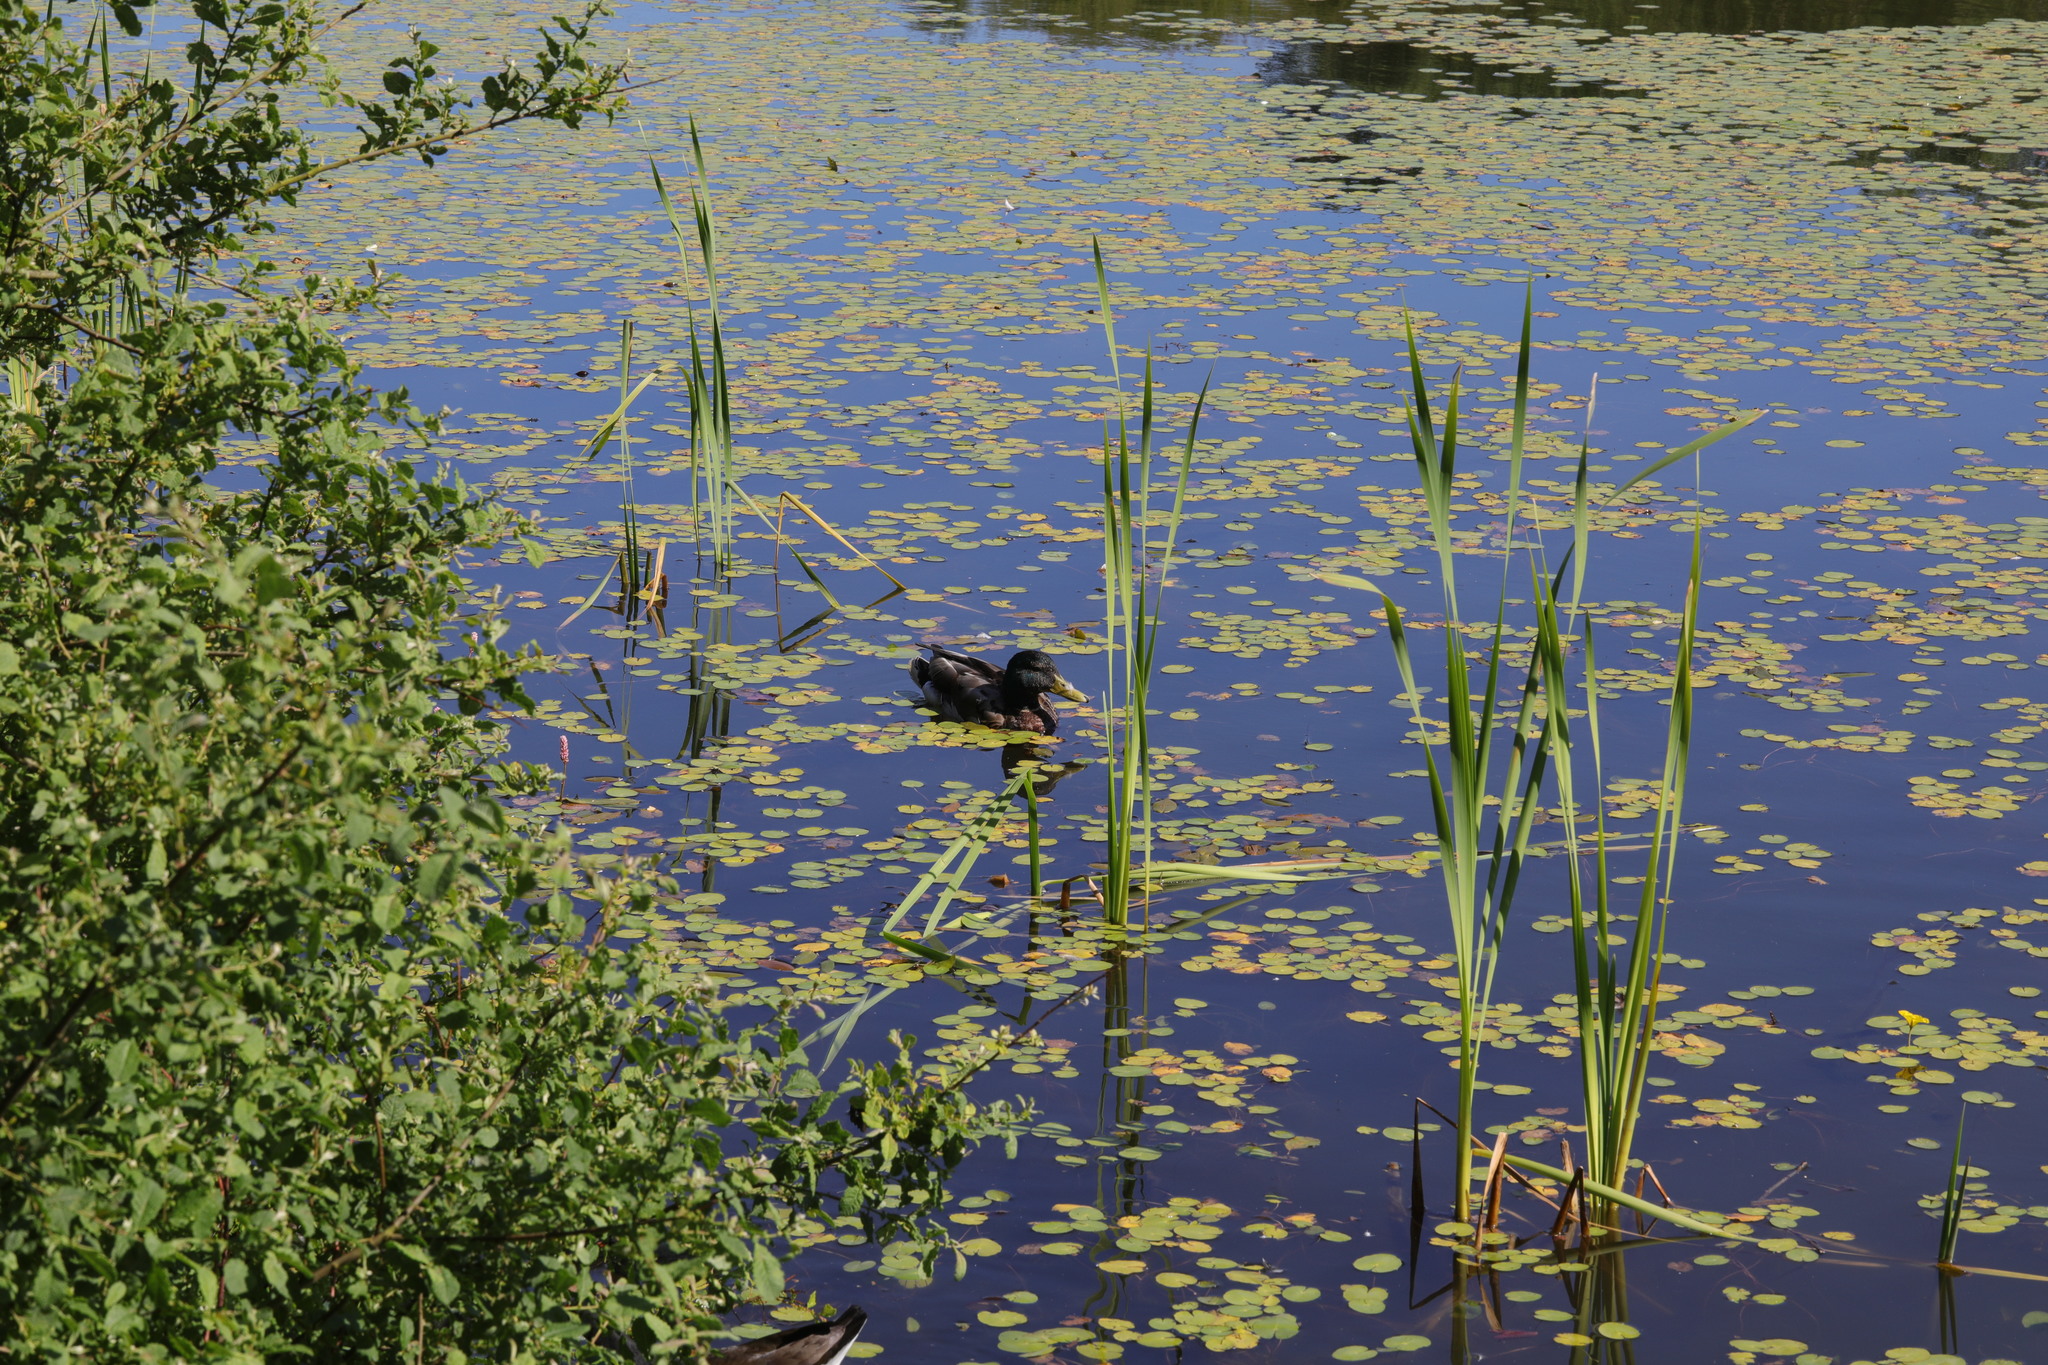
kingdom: Animalia
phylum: Chordata
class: Aves
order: Anseriformes
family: Anatidae
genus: Anas
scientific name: Anas platyrhynchos
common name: Mallard
